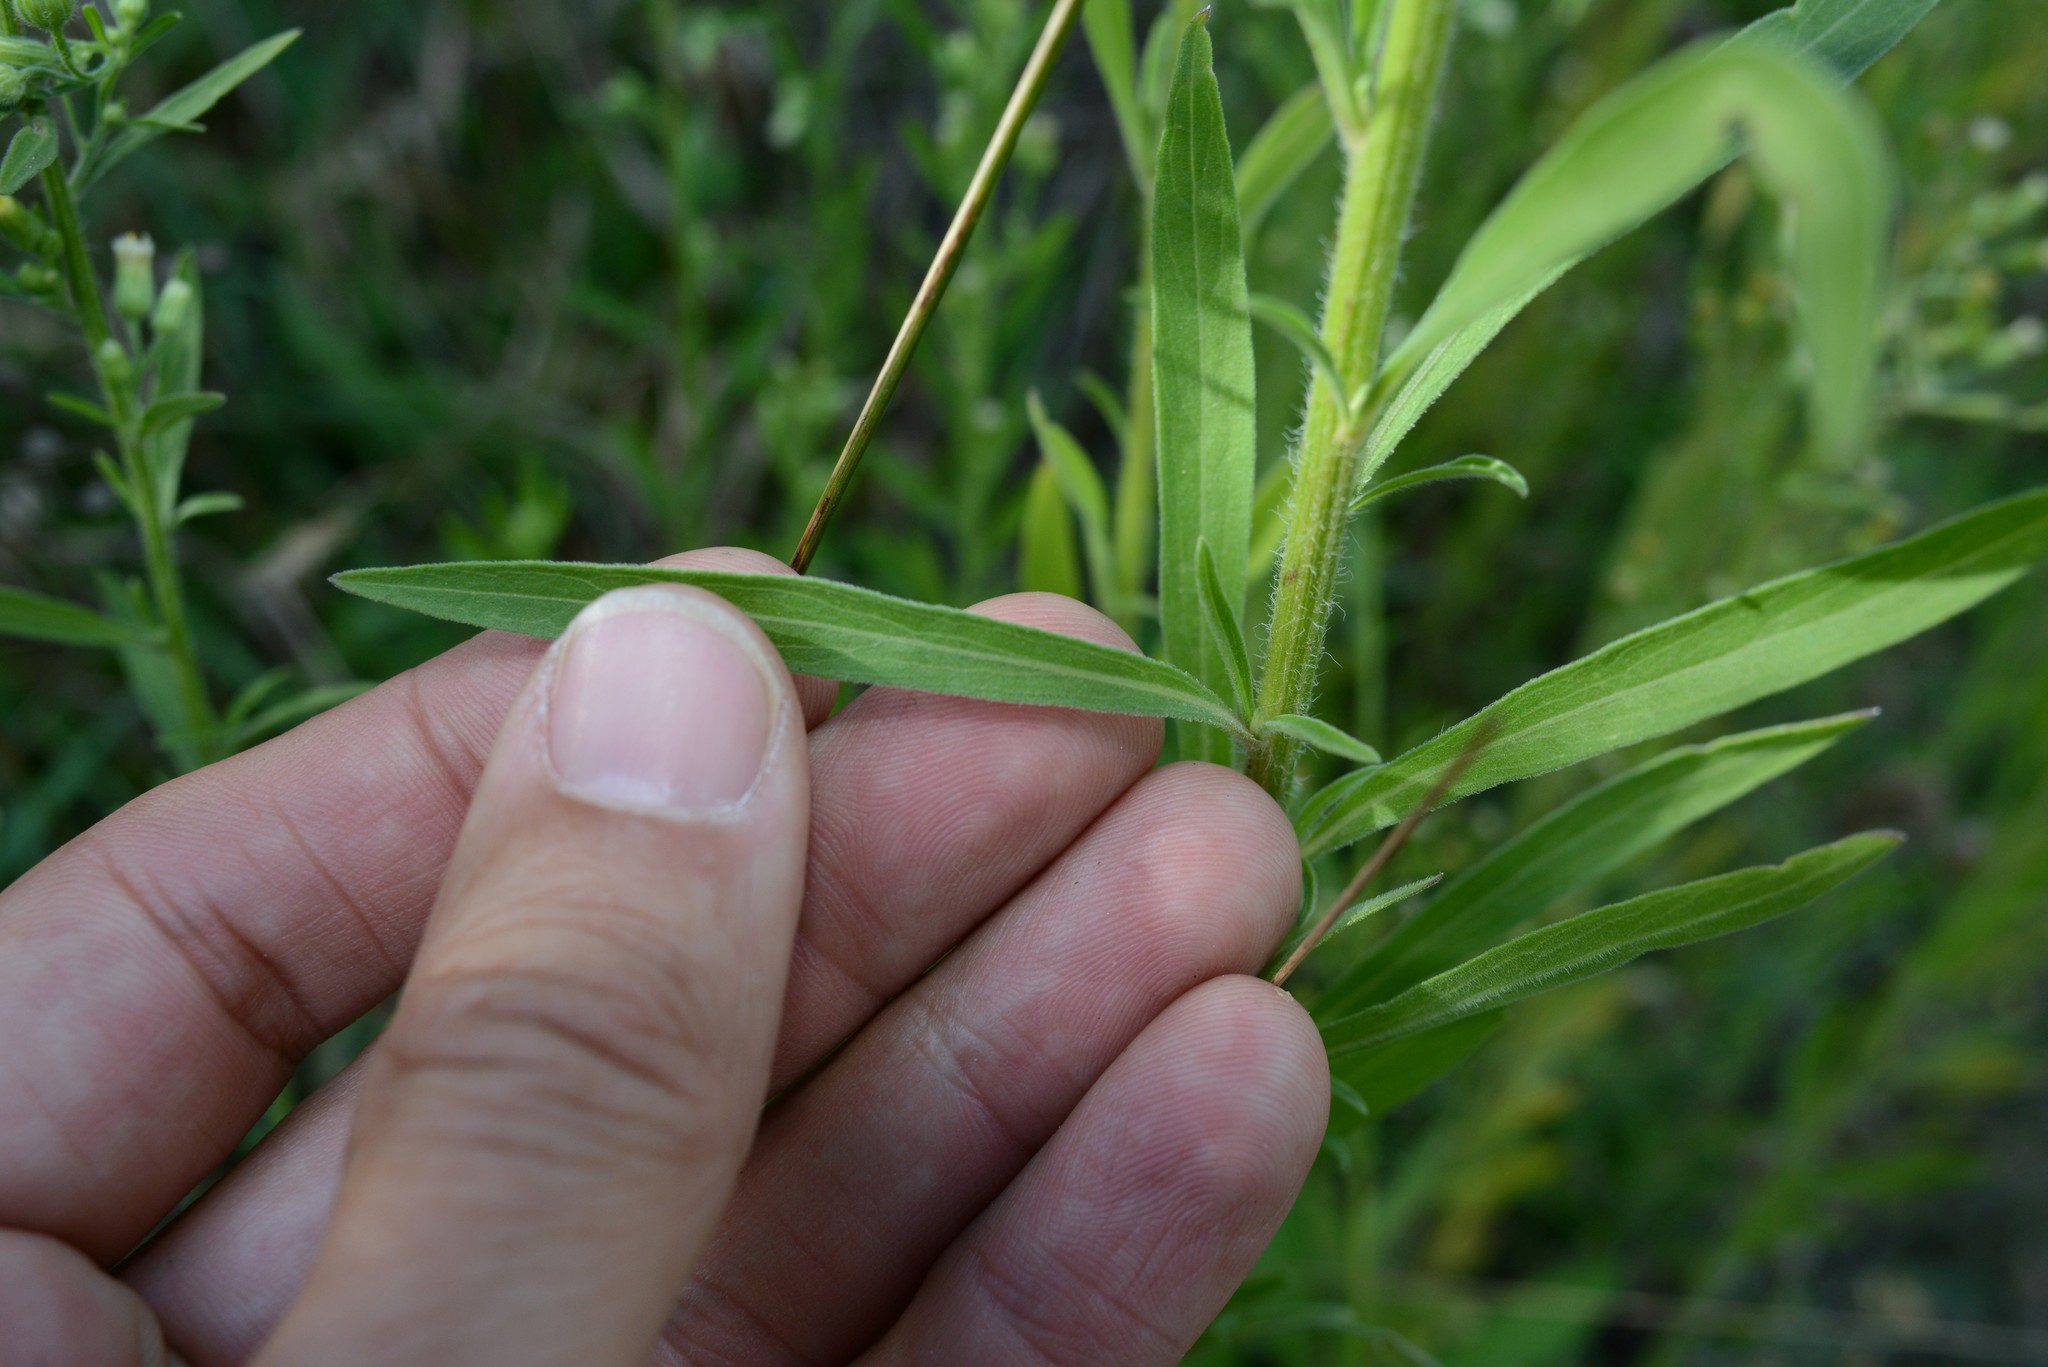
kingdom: Plantae
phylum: Tracheophyta
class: Magnoliopsida
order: Asterales
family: Asteraceae
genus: Erigeron
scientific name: Erigeron sumatrensis
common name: Daisy
